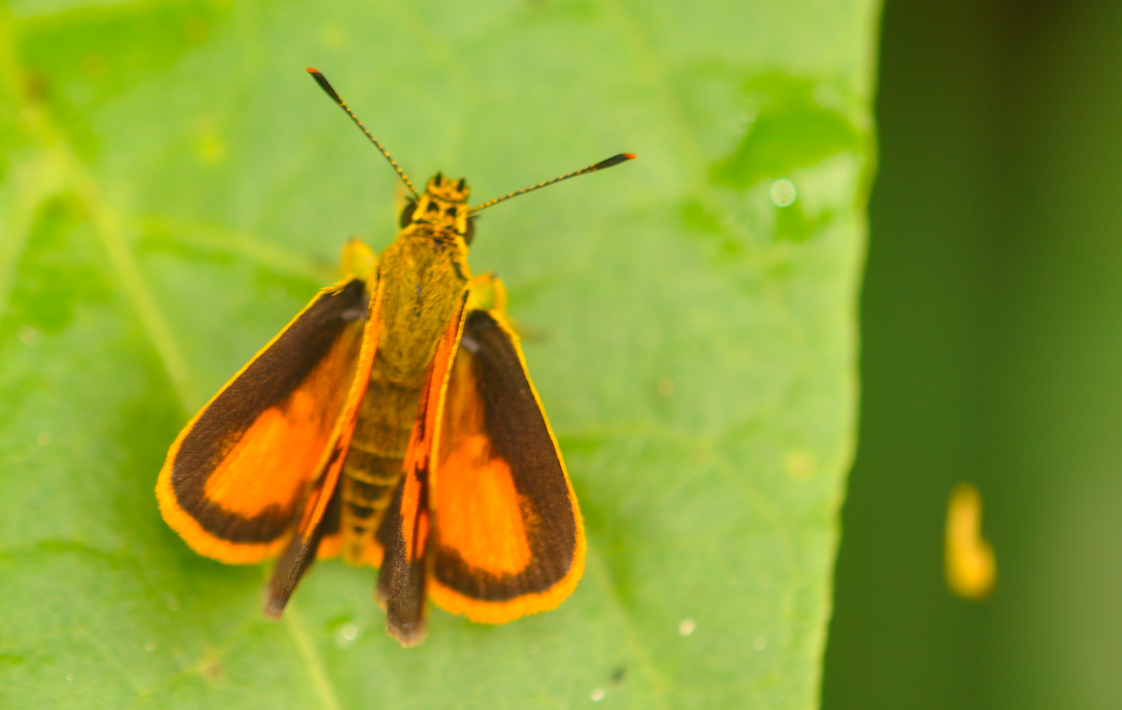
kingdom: Animalia
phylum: Arthropoda
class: Insecta
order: Lepidoptera
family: Hesperiidae
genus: Fulda
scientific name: Fulda coroller
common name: Common fulda
